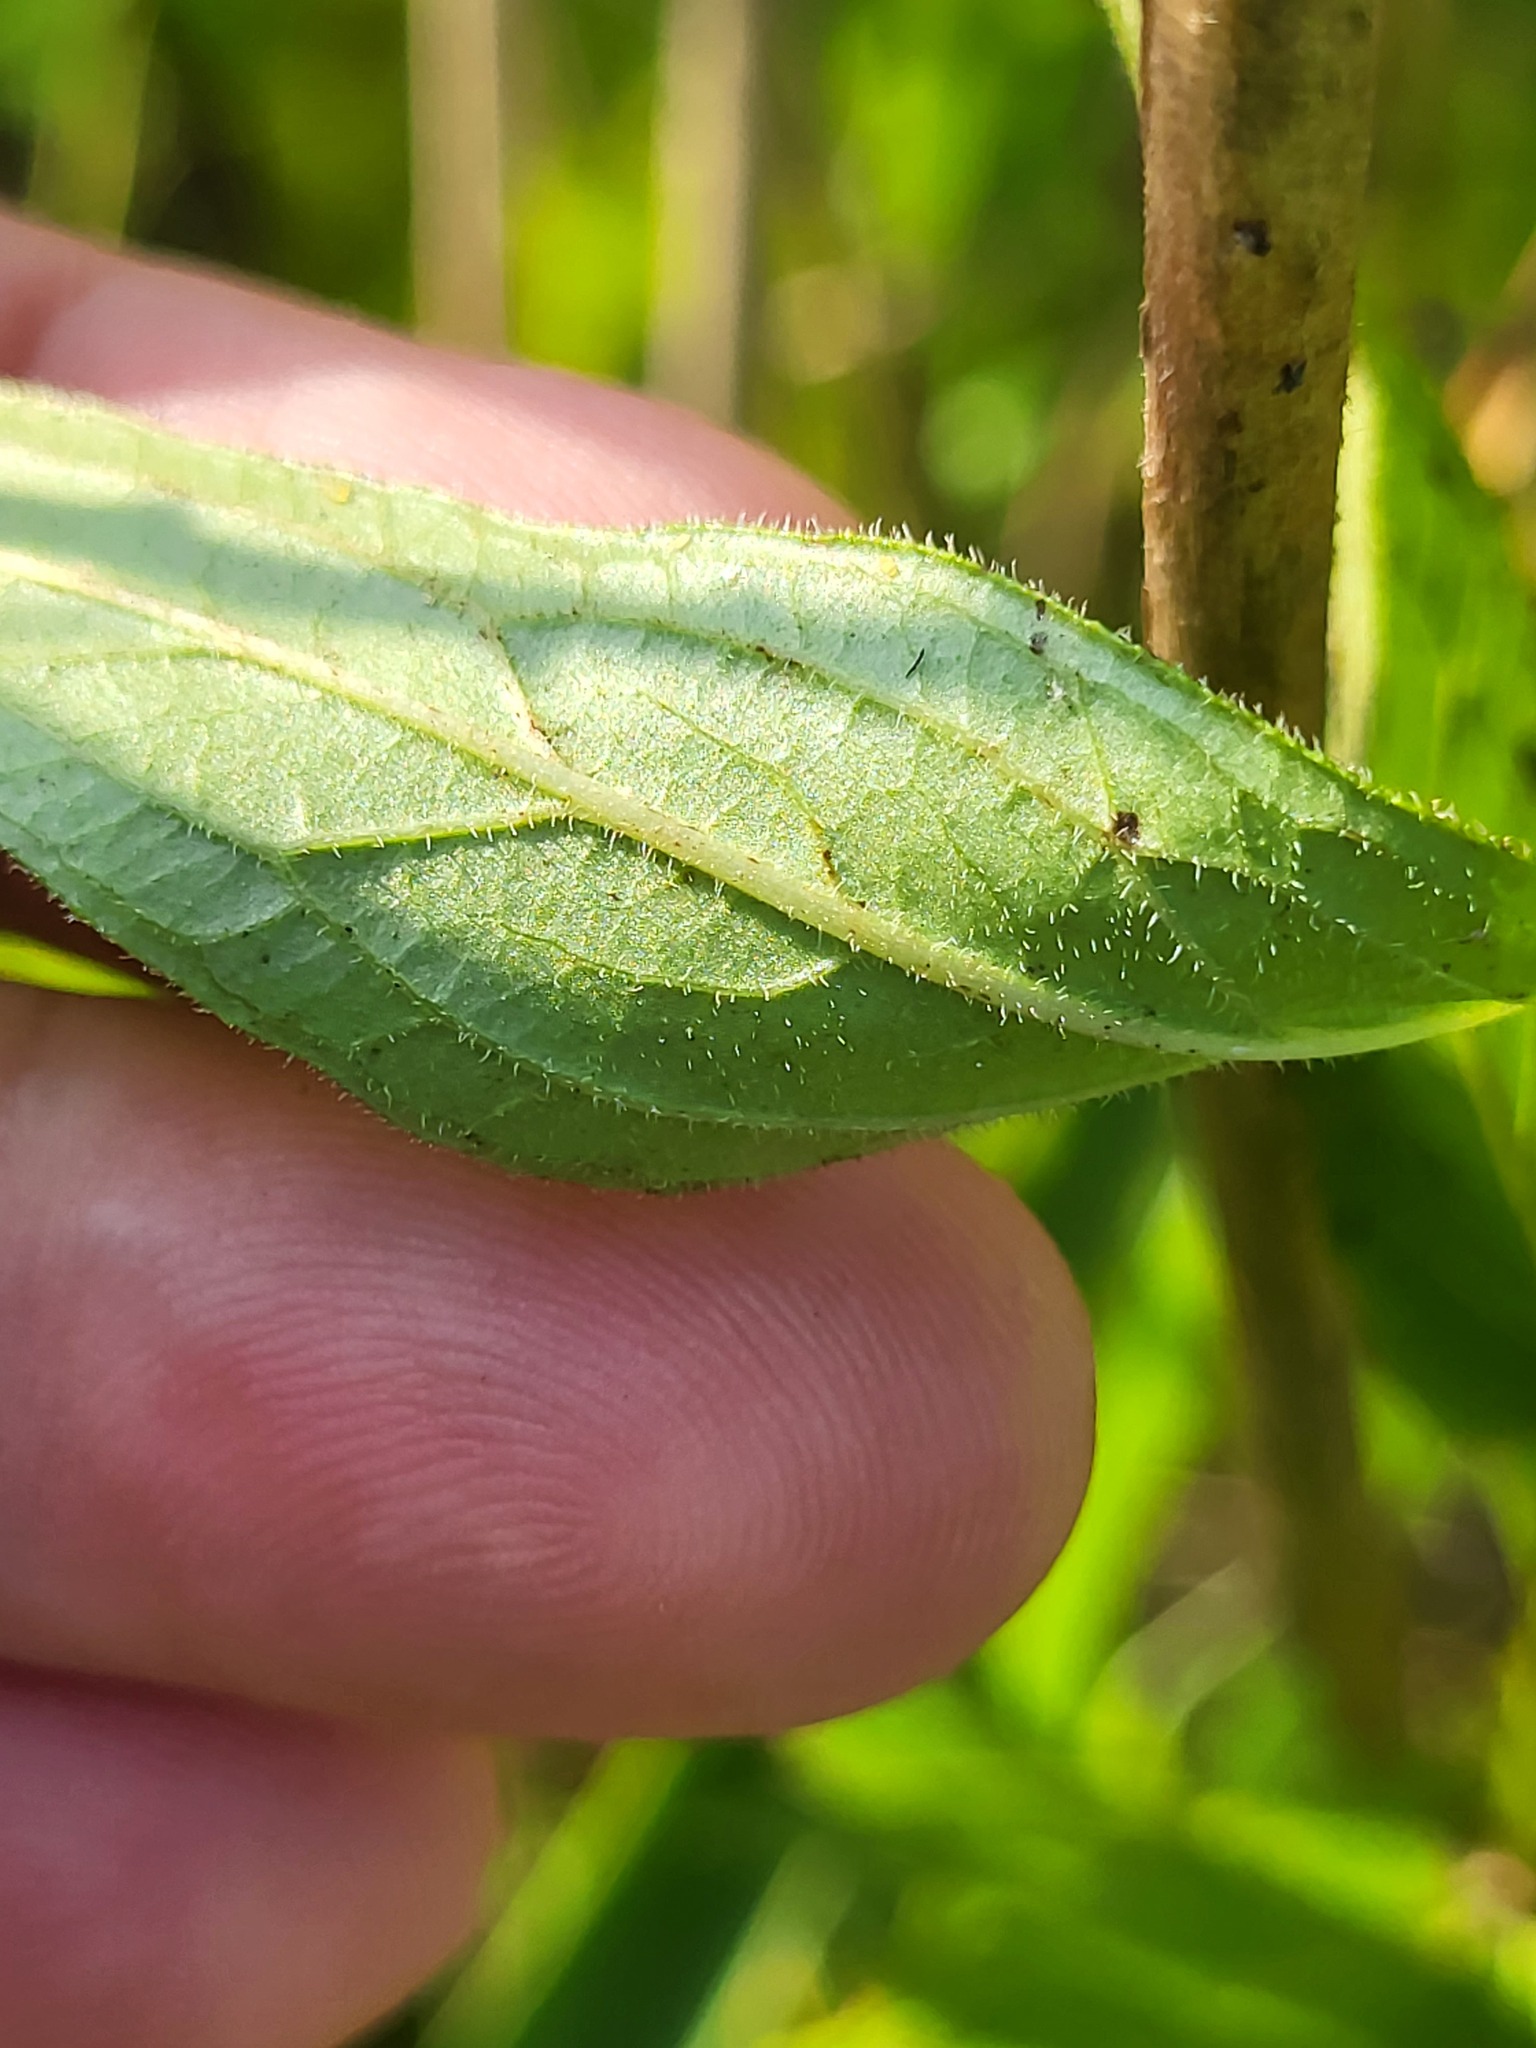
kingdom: Plantae
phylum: Tracheophyta
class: Magnoliopsida
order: Myrtales
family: Lythraceae
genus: Lythrum
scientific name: Lythrum salicaria
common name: Purple loosestrife
